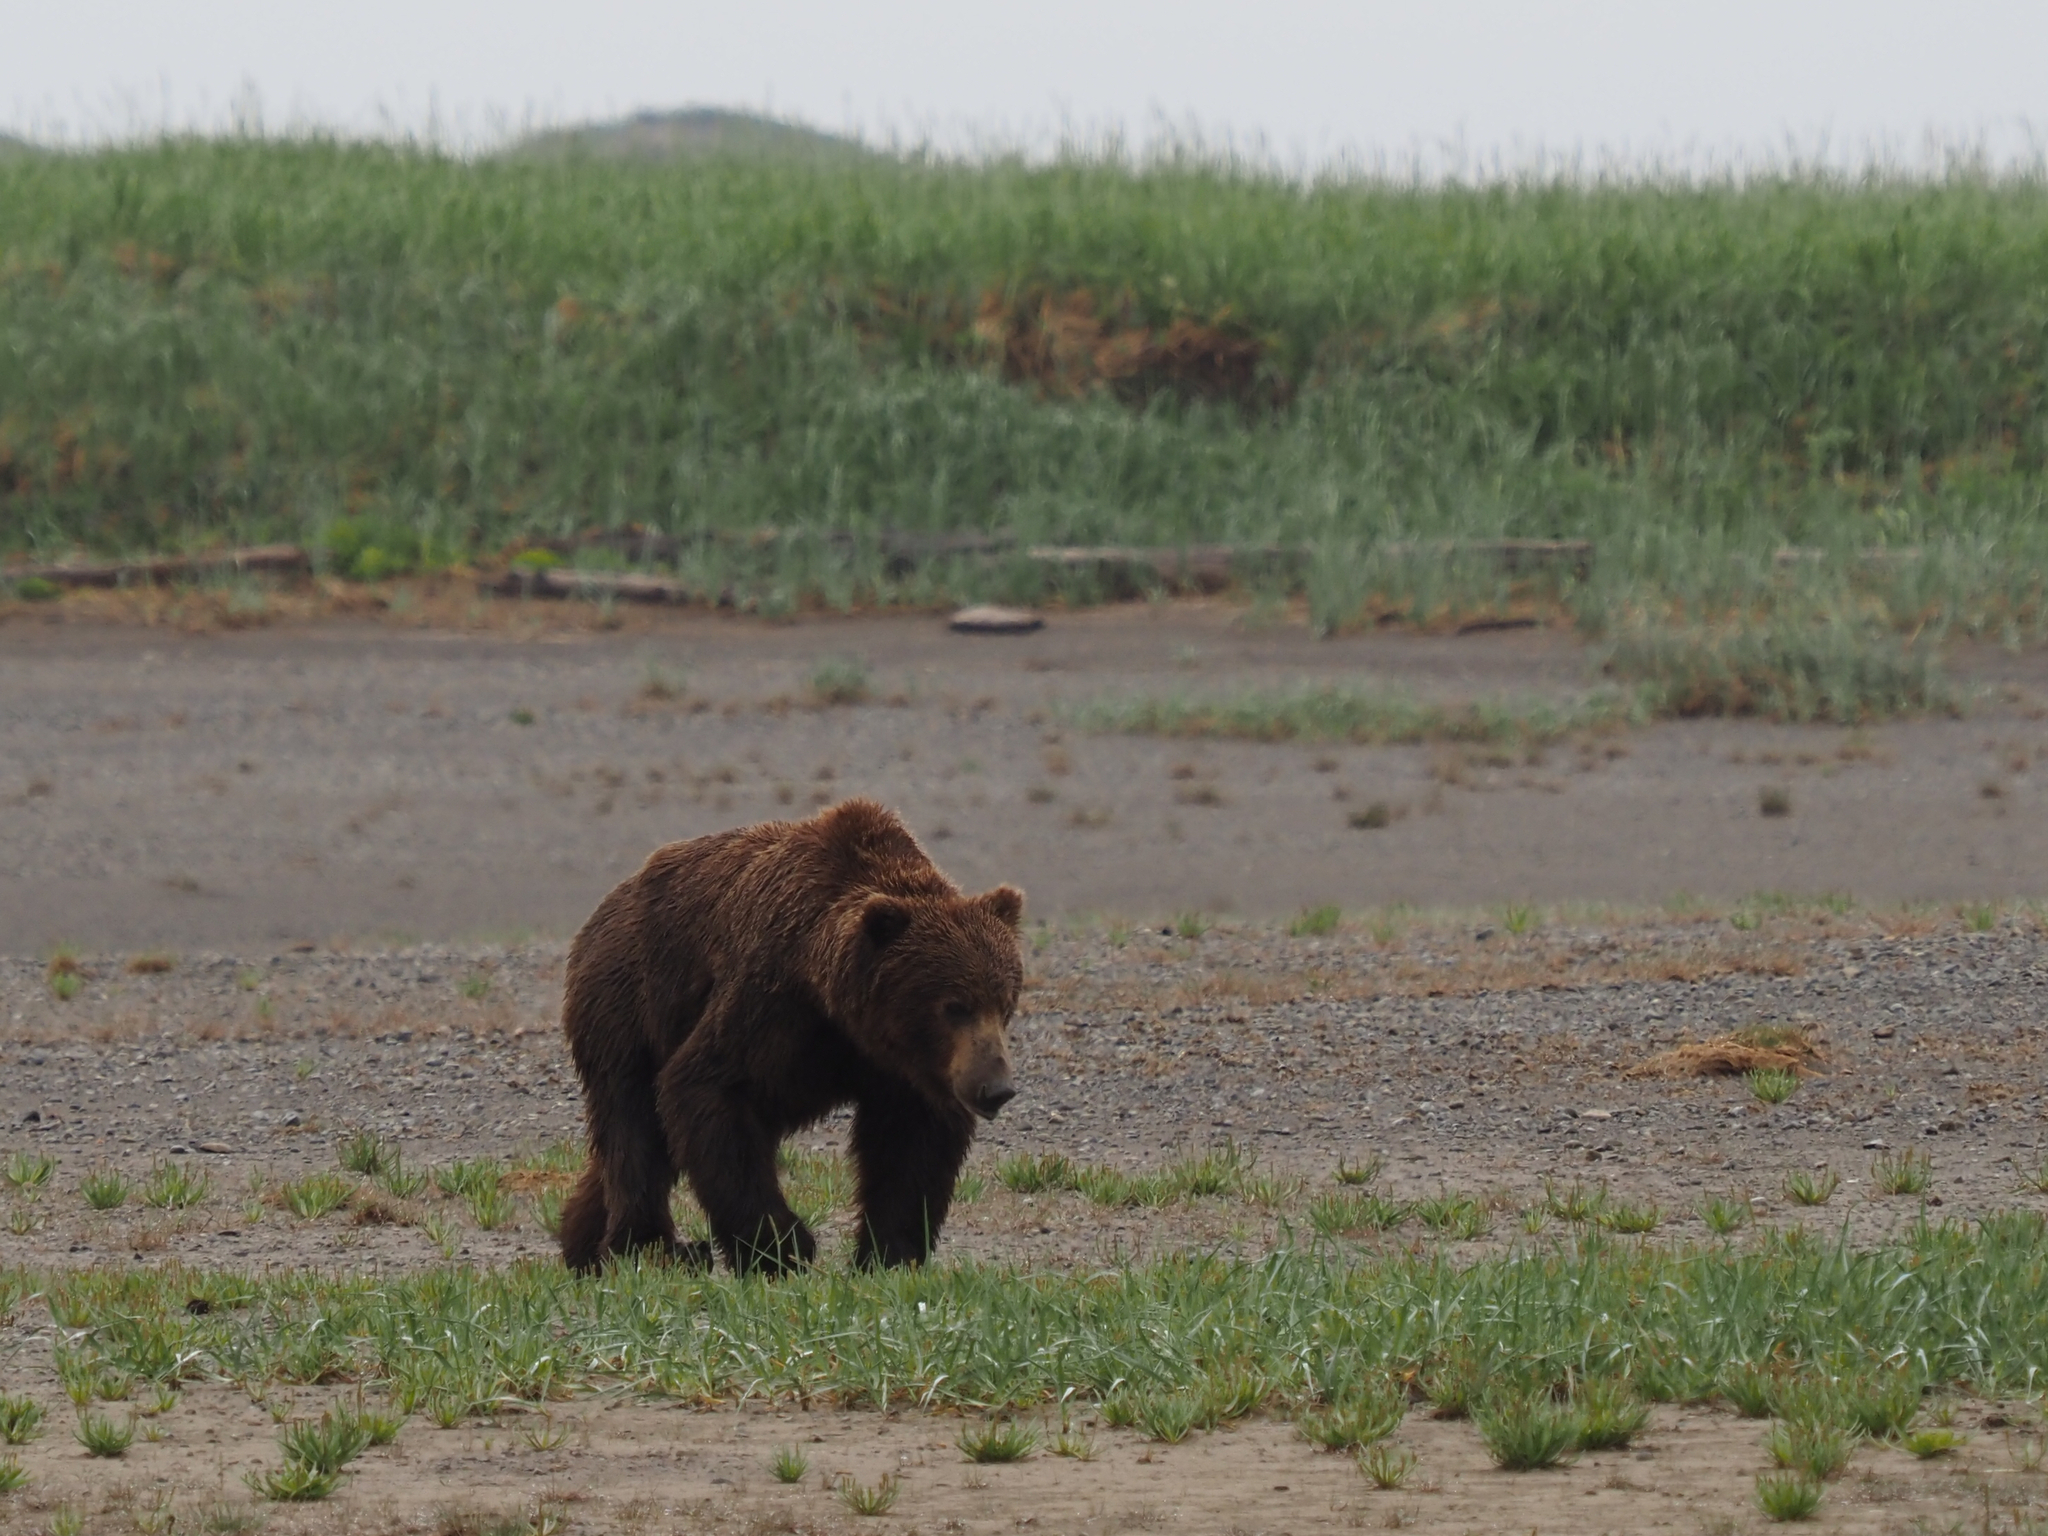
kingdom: Animalia
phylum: Chordata
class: Mammalia
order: Carnivora
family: Ursidae
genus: Ursus
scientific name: Ursus arctos
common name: Brown bear
